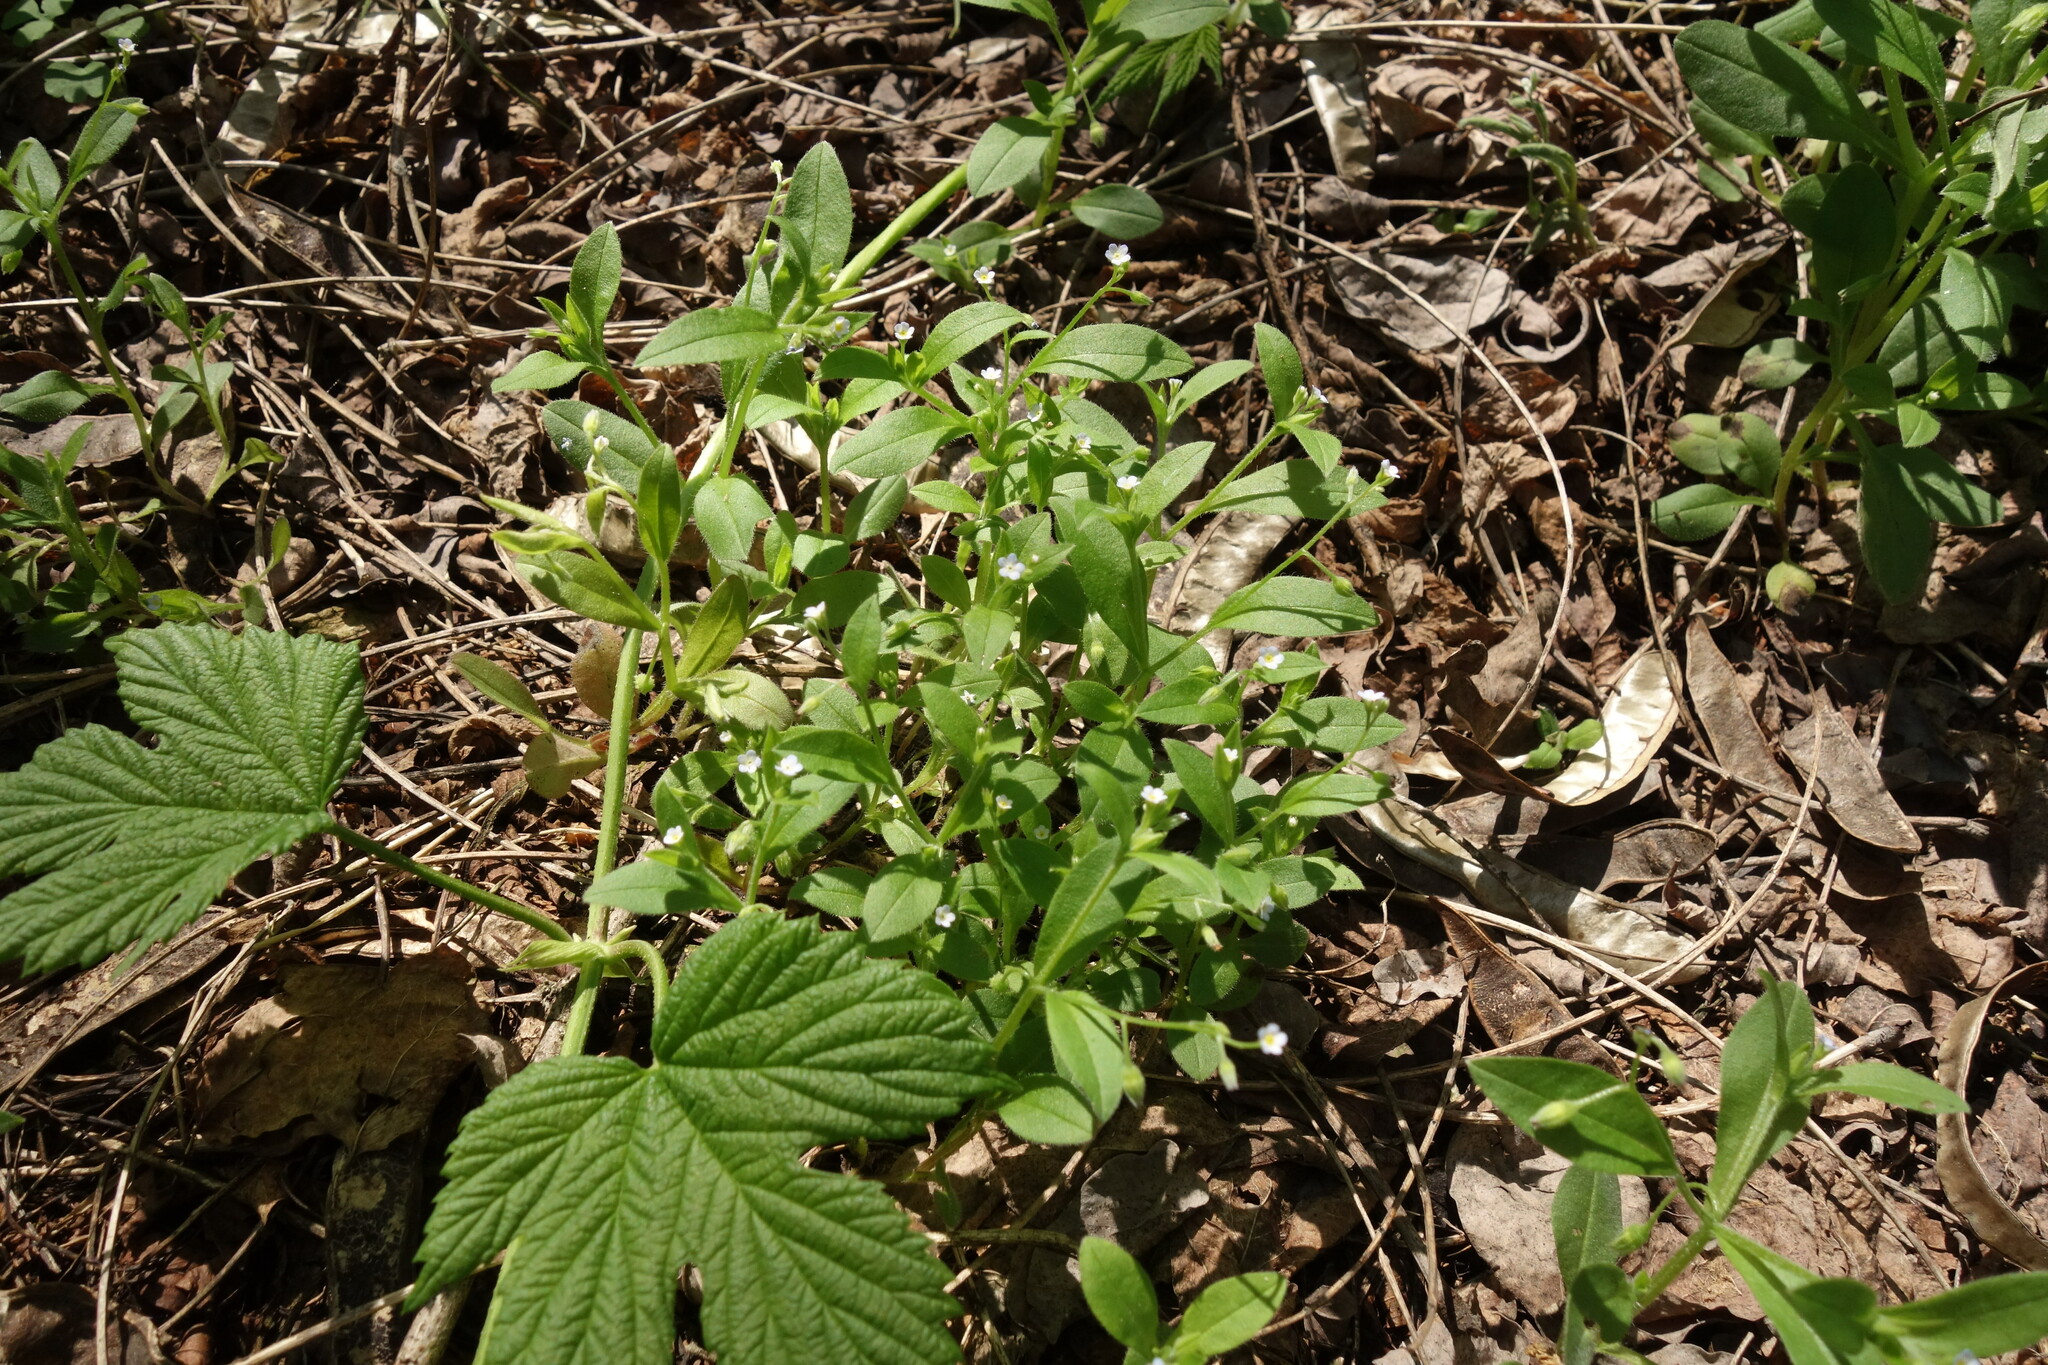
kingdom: Plantae
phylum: Tracheophyta
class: Magnoliopsida
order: Boraginales
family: Boraginaceae
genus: Myosotis
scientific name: Myosotis sparsiflora
